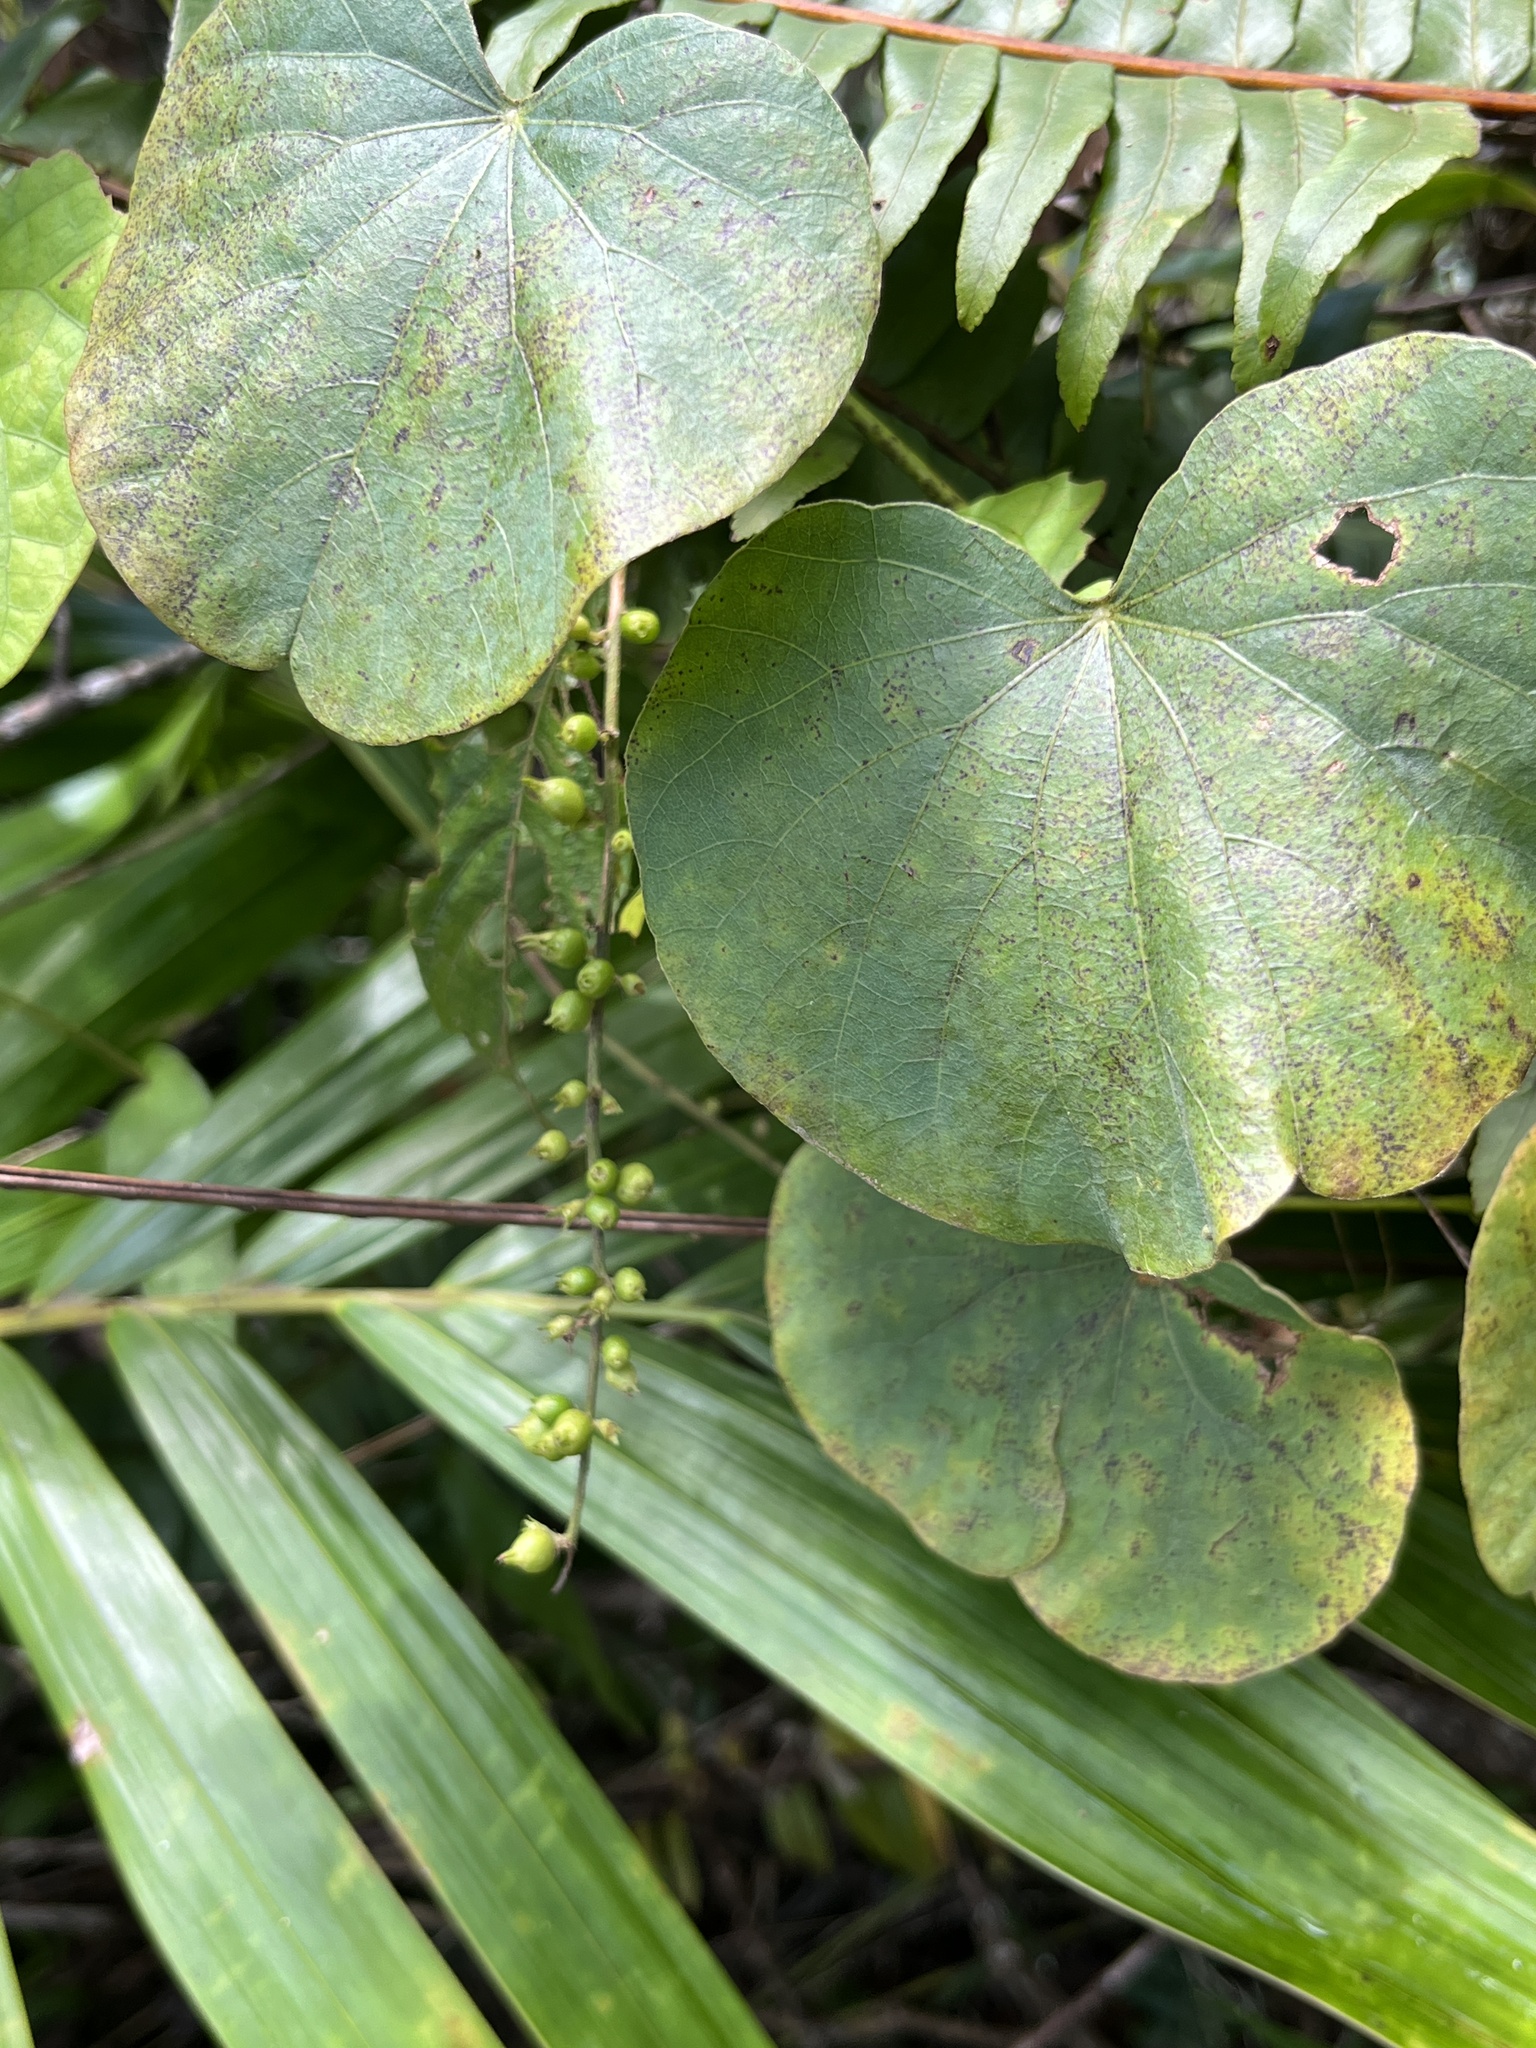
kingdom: Plantae
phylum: Tracheophyta
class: Liliopsida
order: Arecales
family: Arecaceae
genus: Prestoea
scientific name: Prestoea acuminata
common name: Sierran palm
